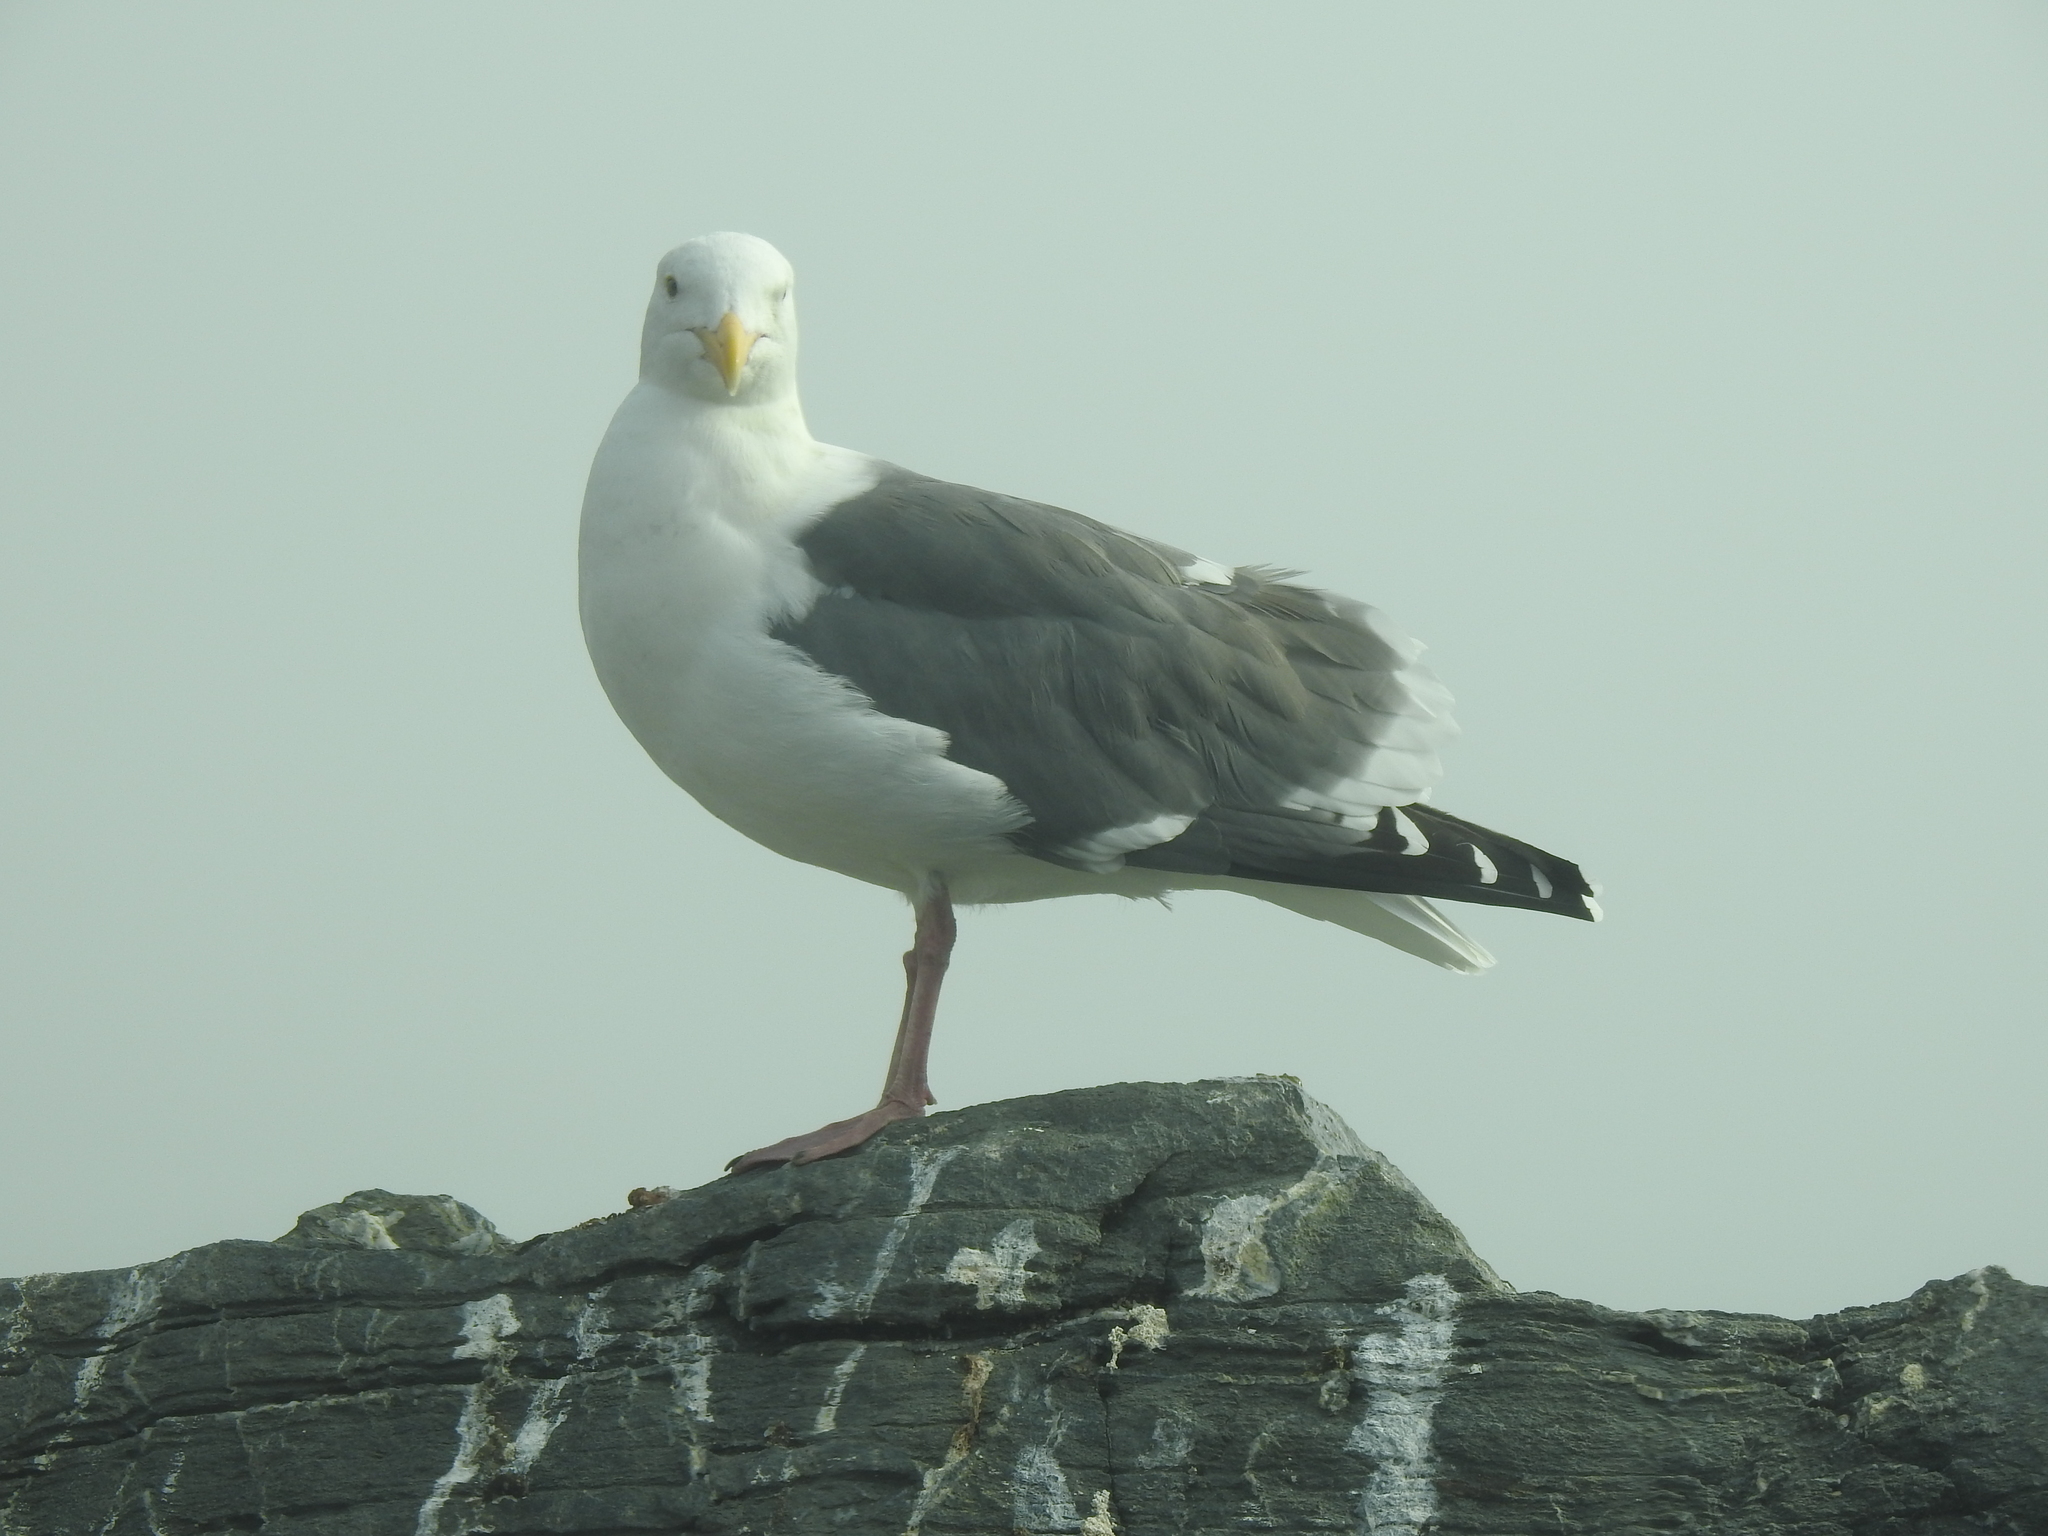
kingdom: Animalia
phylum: Chordata
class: Aves
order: Charadriiformes
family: Laridae
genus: Larus
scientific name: Larus occidentalis
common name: Western gull
